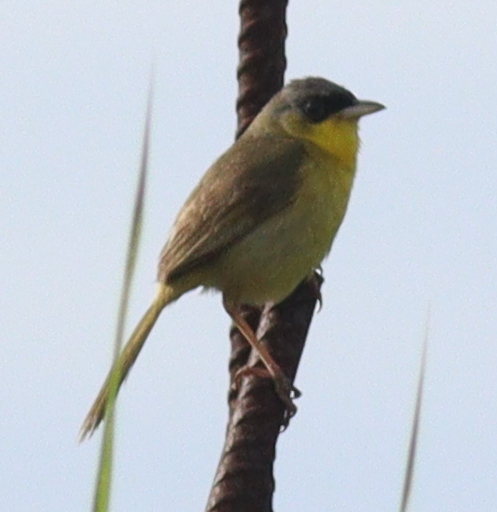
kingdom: Animalia
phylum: Chordata
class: Aves
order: Passeriformes
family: Parulidae
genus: Geothlypis
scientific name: Geothlypis poliocephala
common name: Gray-crowned yellowthroat
